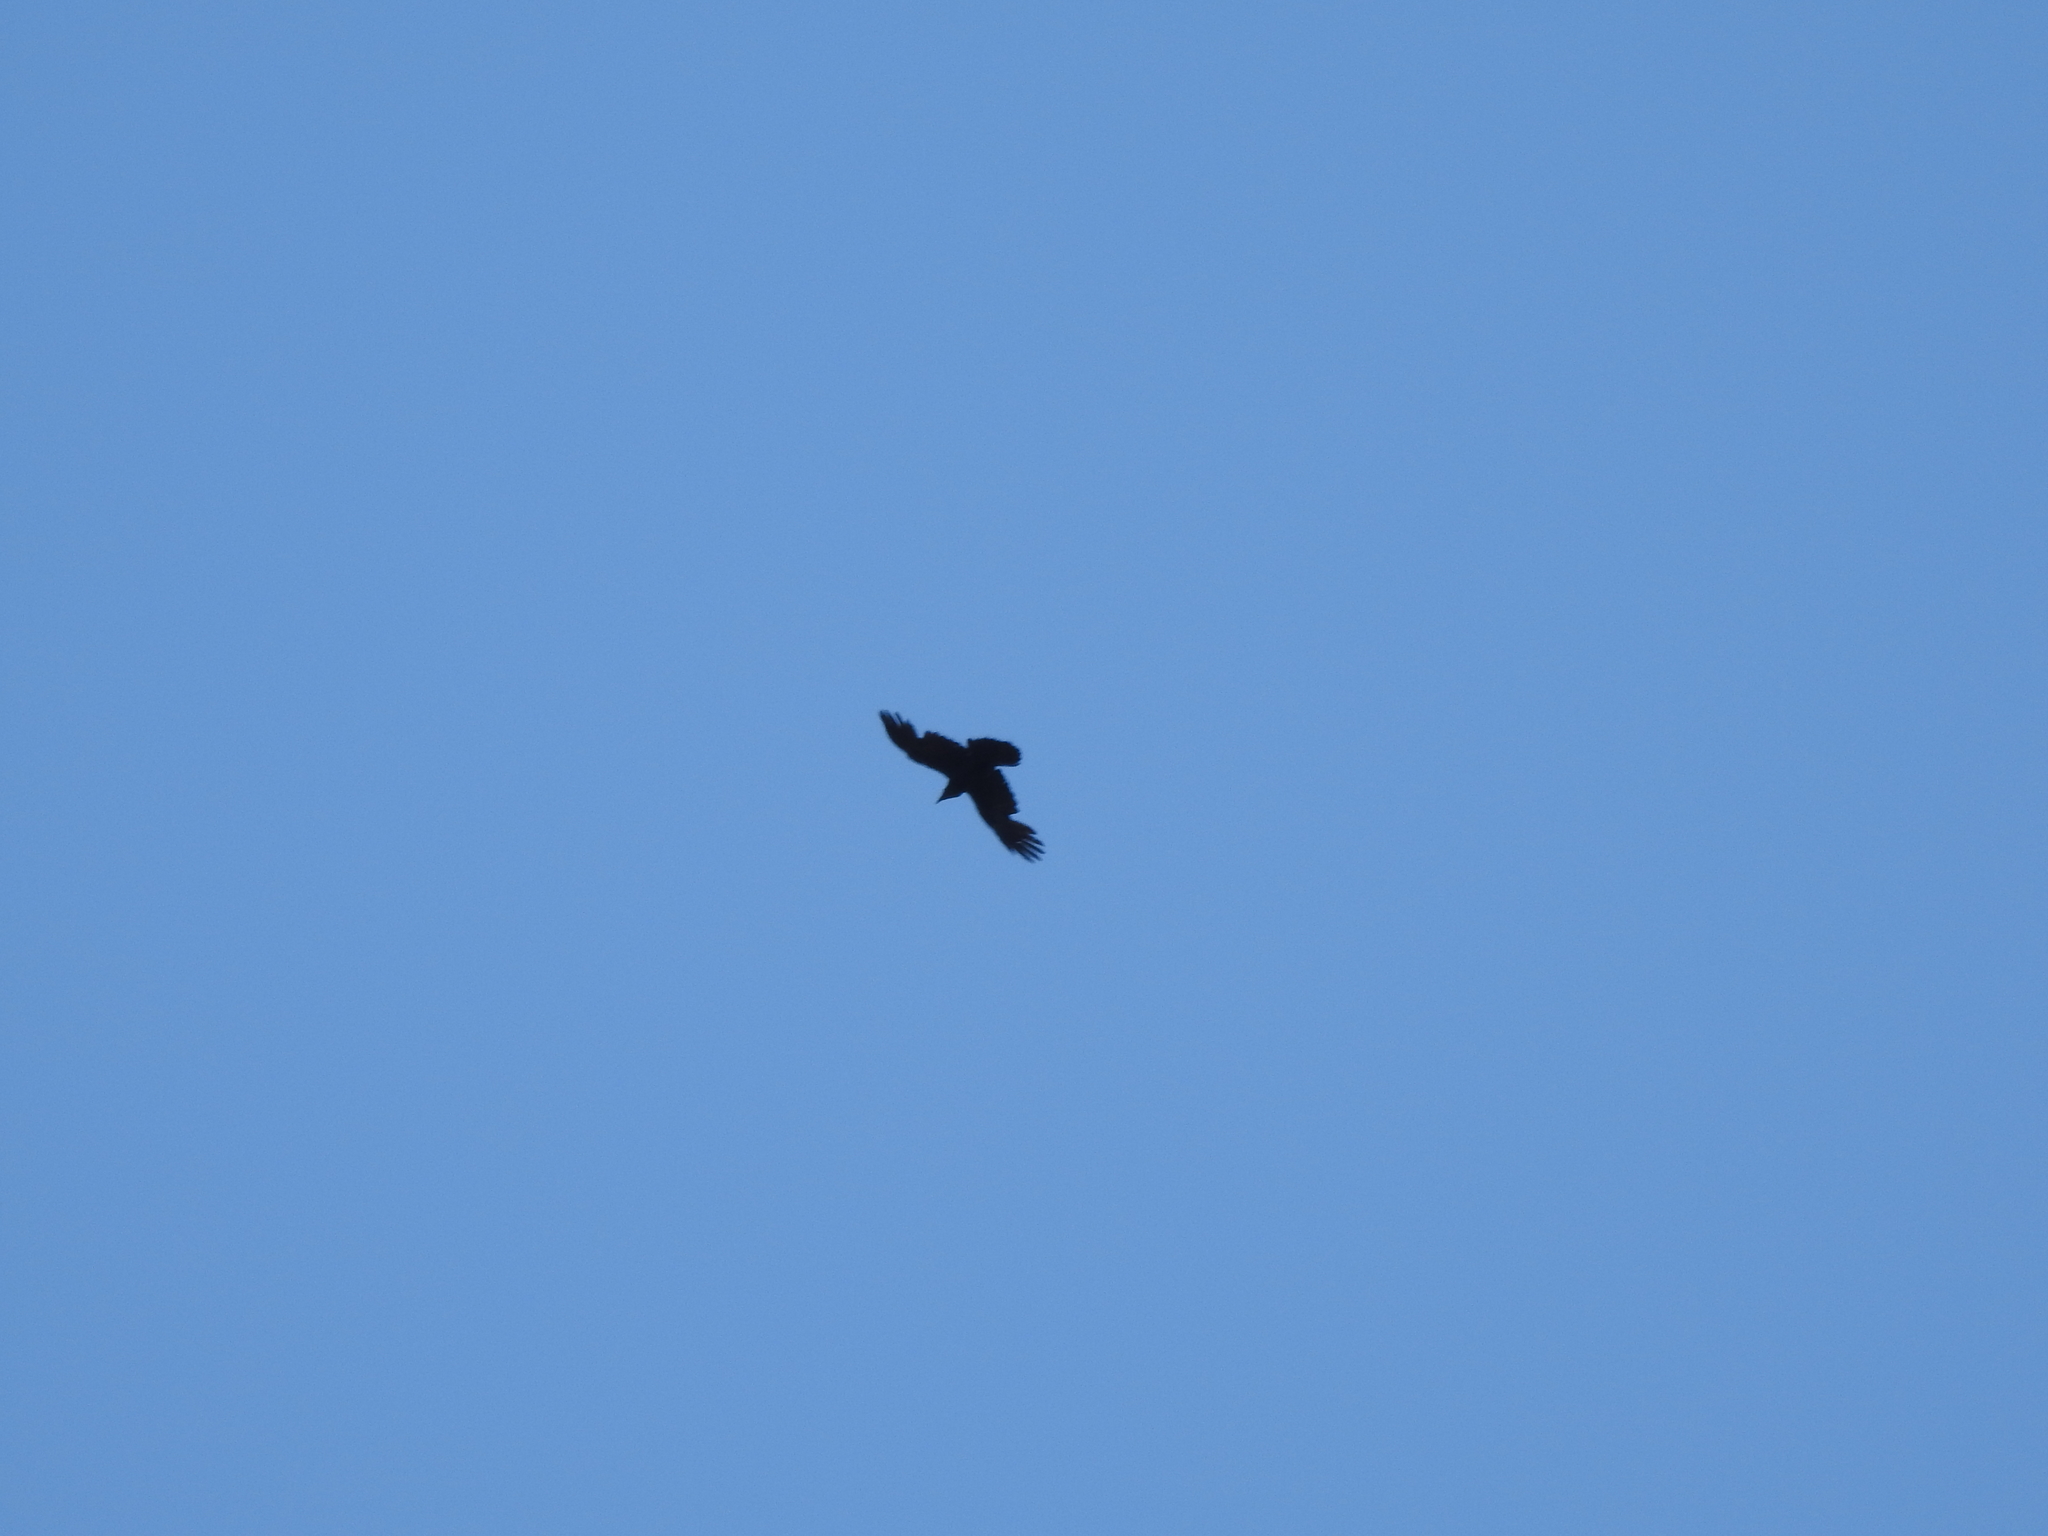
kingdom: Animalia
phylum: Chordata
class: Aves
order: Passeriformes
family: Corvidae
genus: Corvus
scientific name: Corvus corax
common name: Common raven
